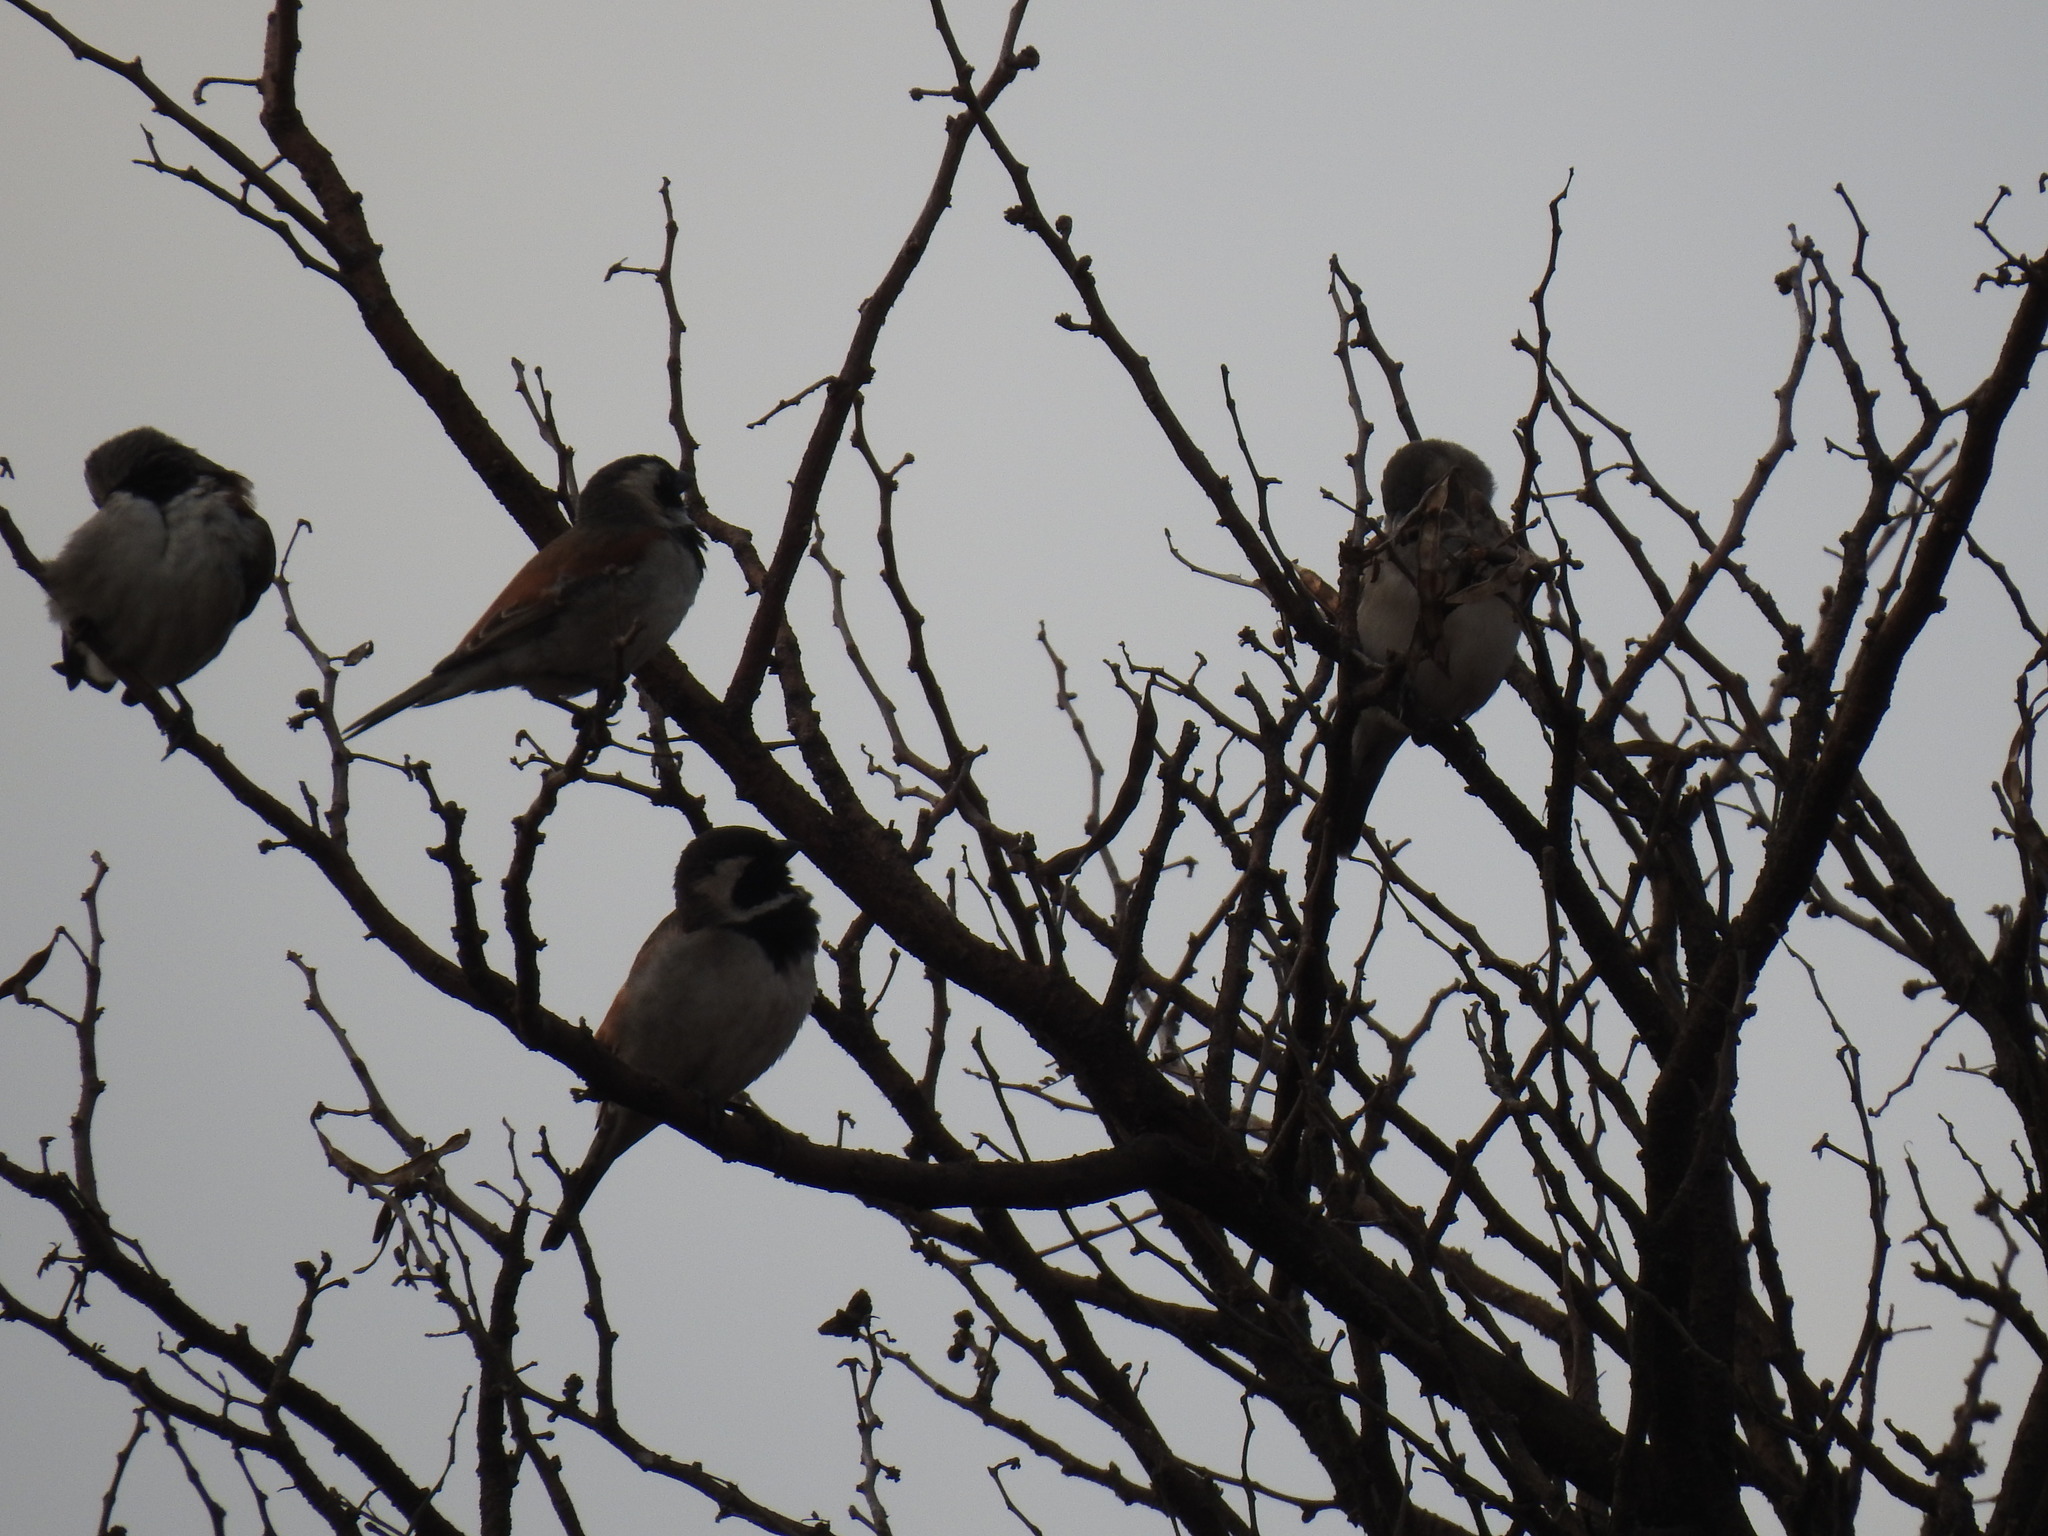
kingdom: Animalia
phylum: Chordata
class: Aves
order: Passeriformes
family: Passeridae
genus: Passer
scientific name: Passer melanurus
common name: Cape sparrow
